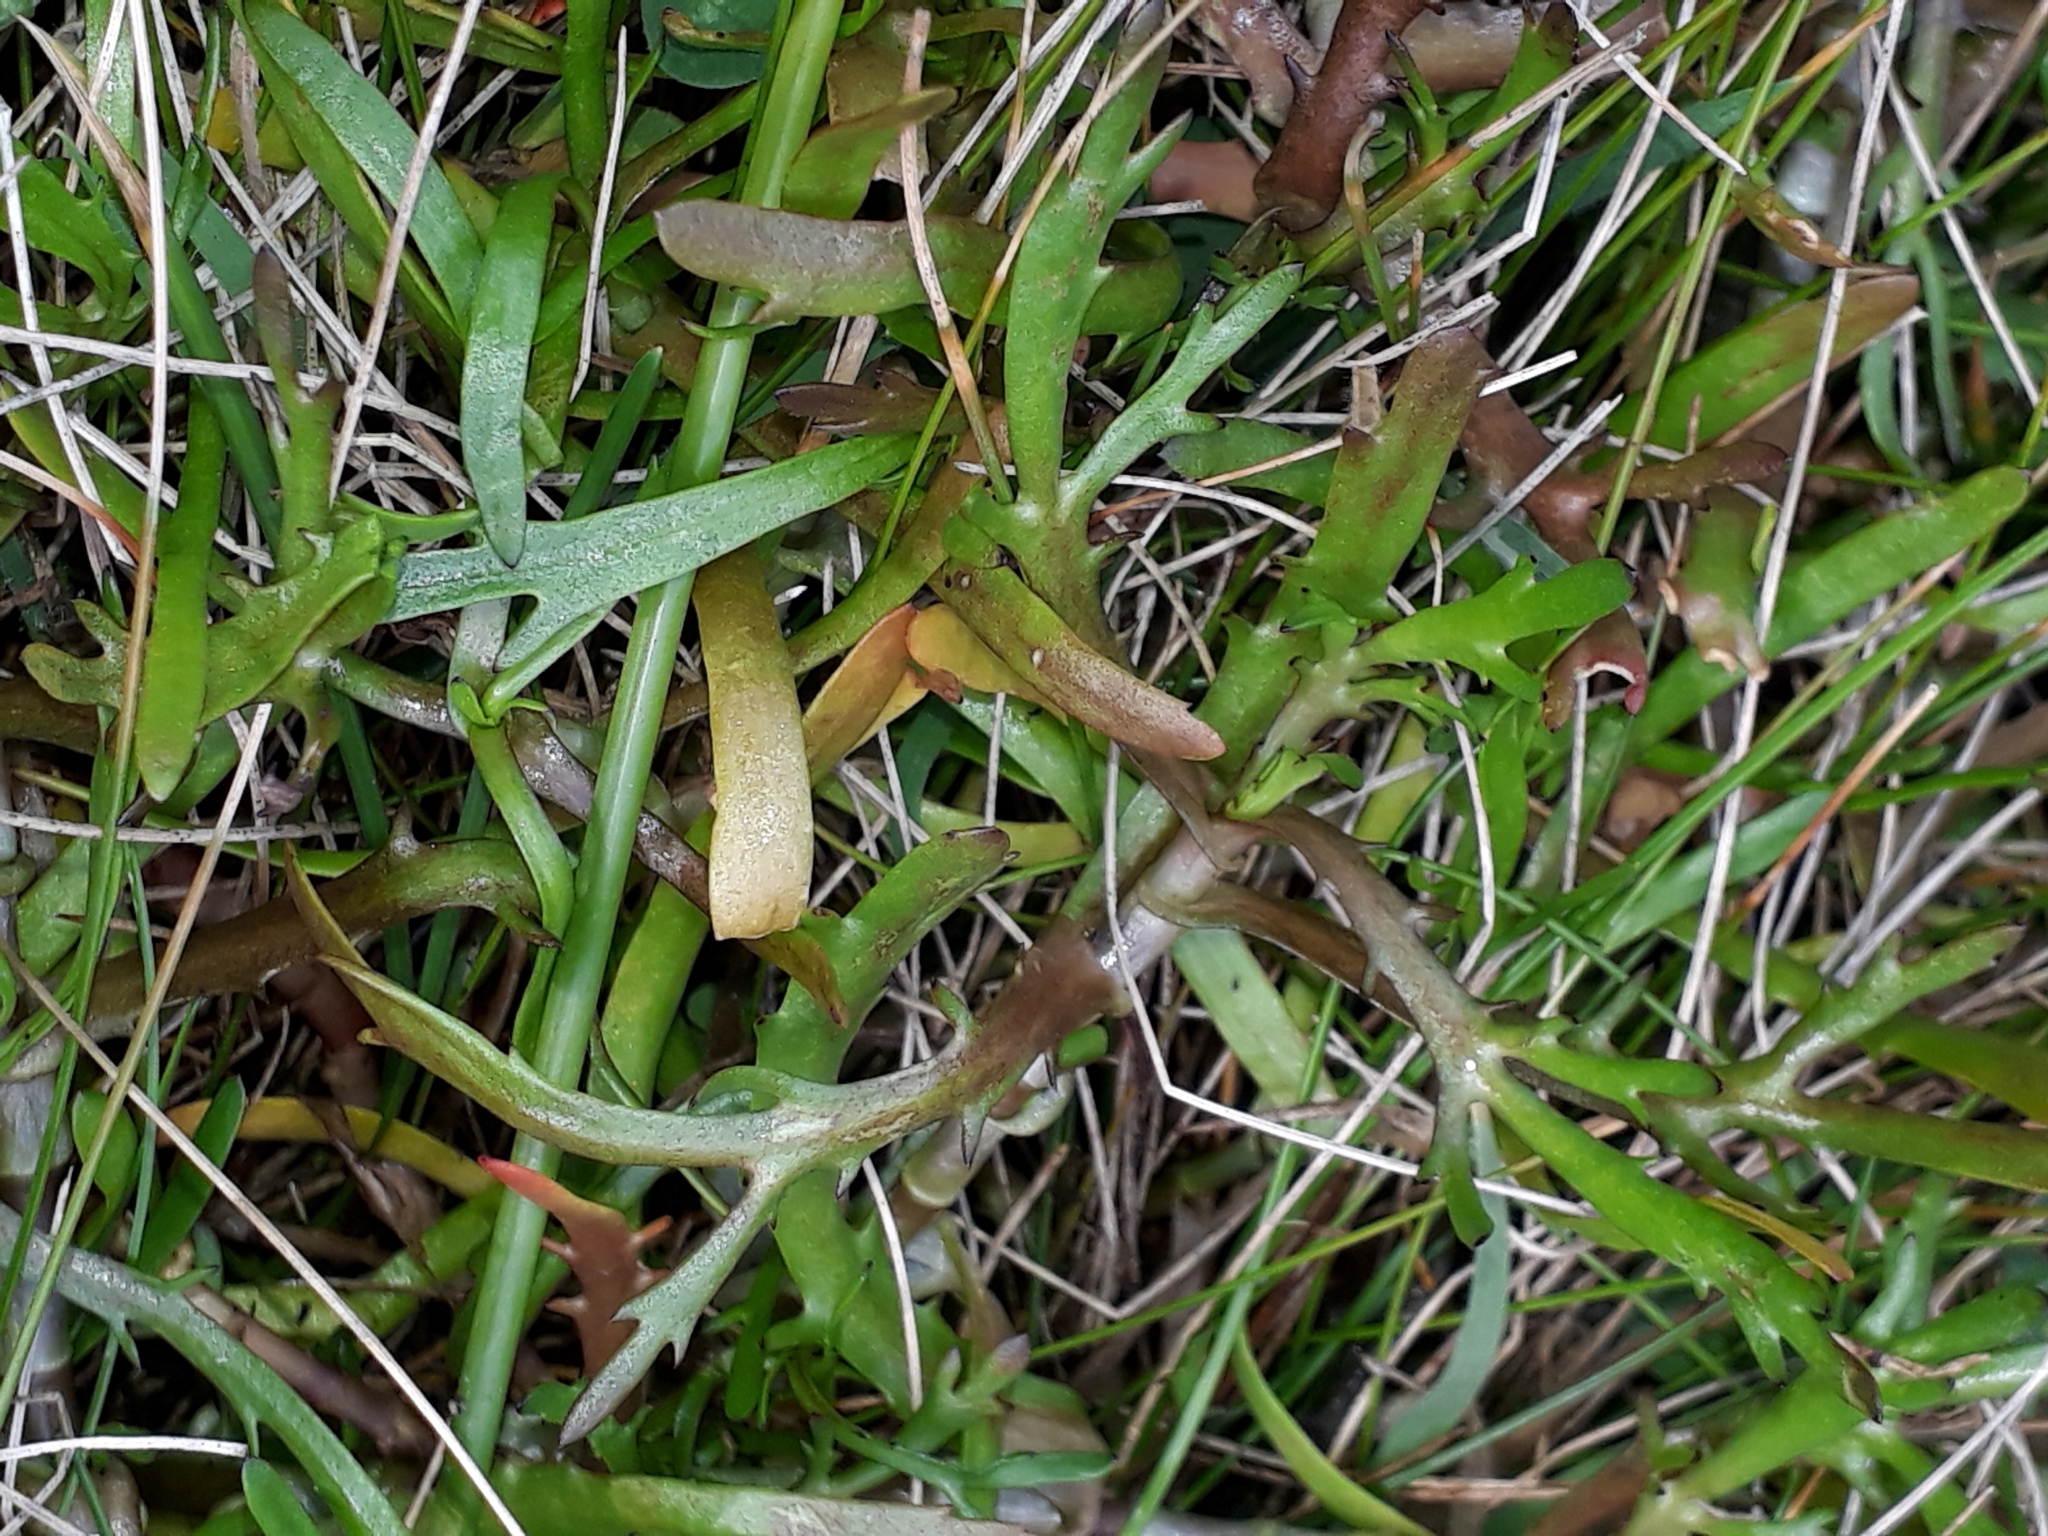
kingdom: Plantae
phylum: Tracheophyta
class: Magnoliopsida
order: Asterales
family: Asteraceae
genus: Cotula
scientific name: Cotula coronopifolia
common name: Buttonweed
